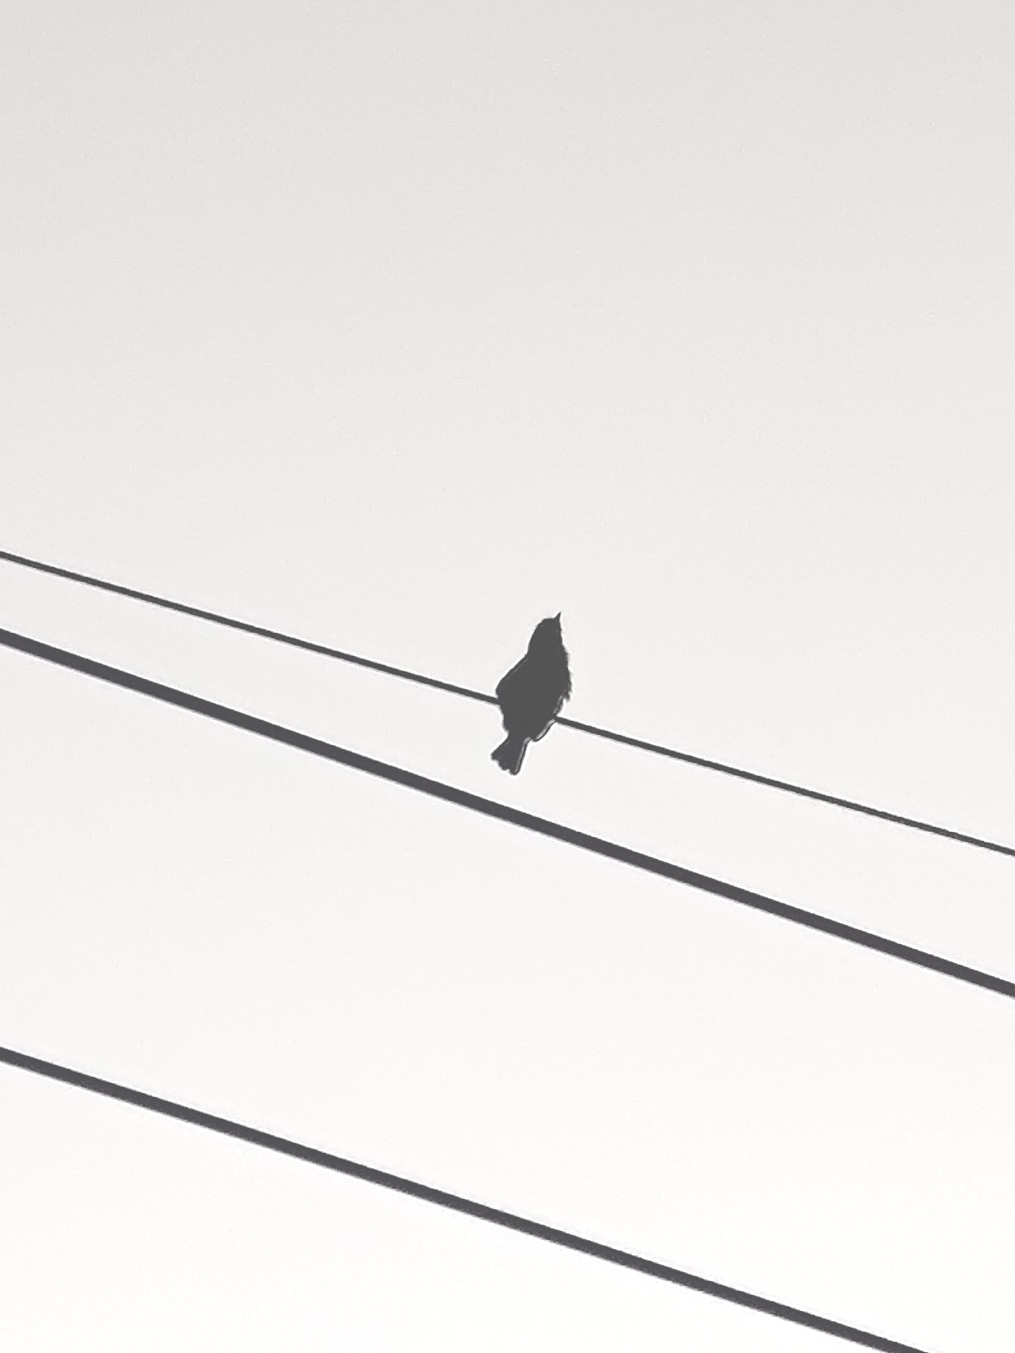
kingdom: Animalia
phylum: Chordata
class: Aves
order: Piciformes
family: Megalaimidae
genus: Psilopogon
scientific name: Psilopogon nuchalis
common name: Taiwan barbet
